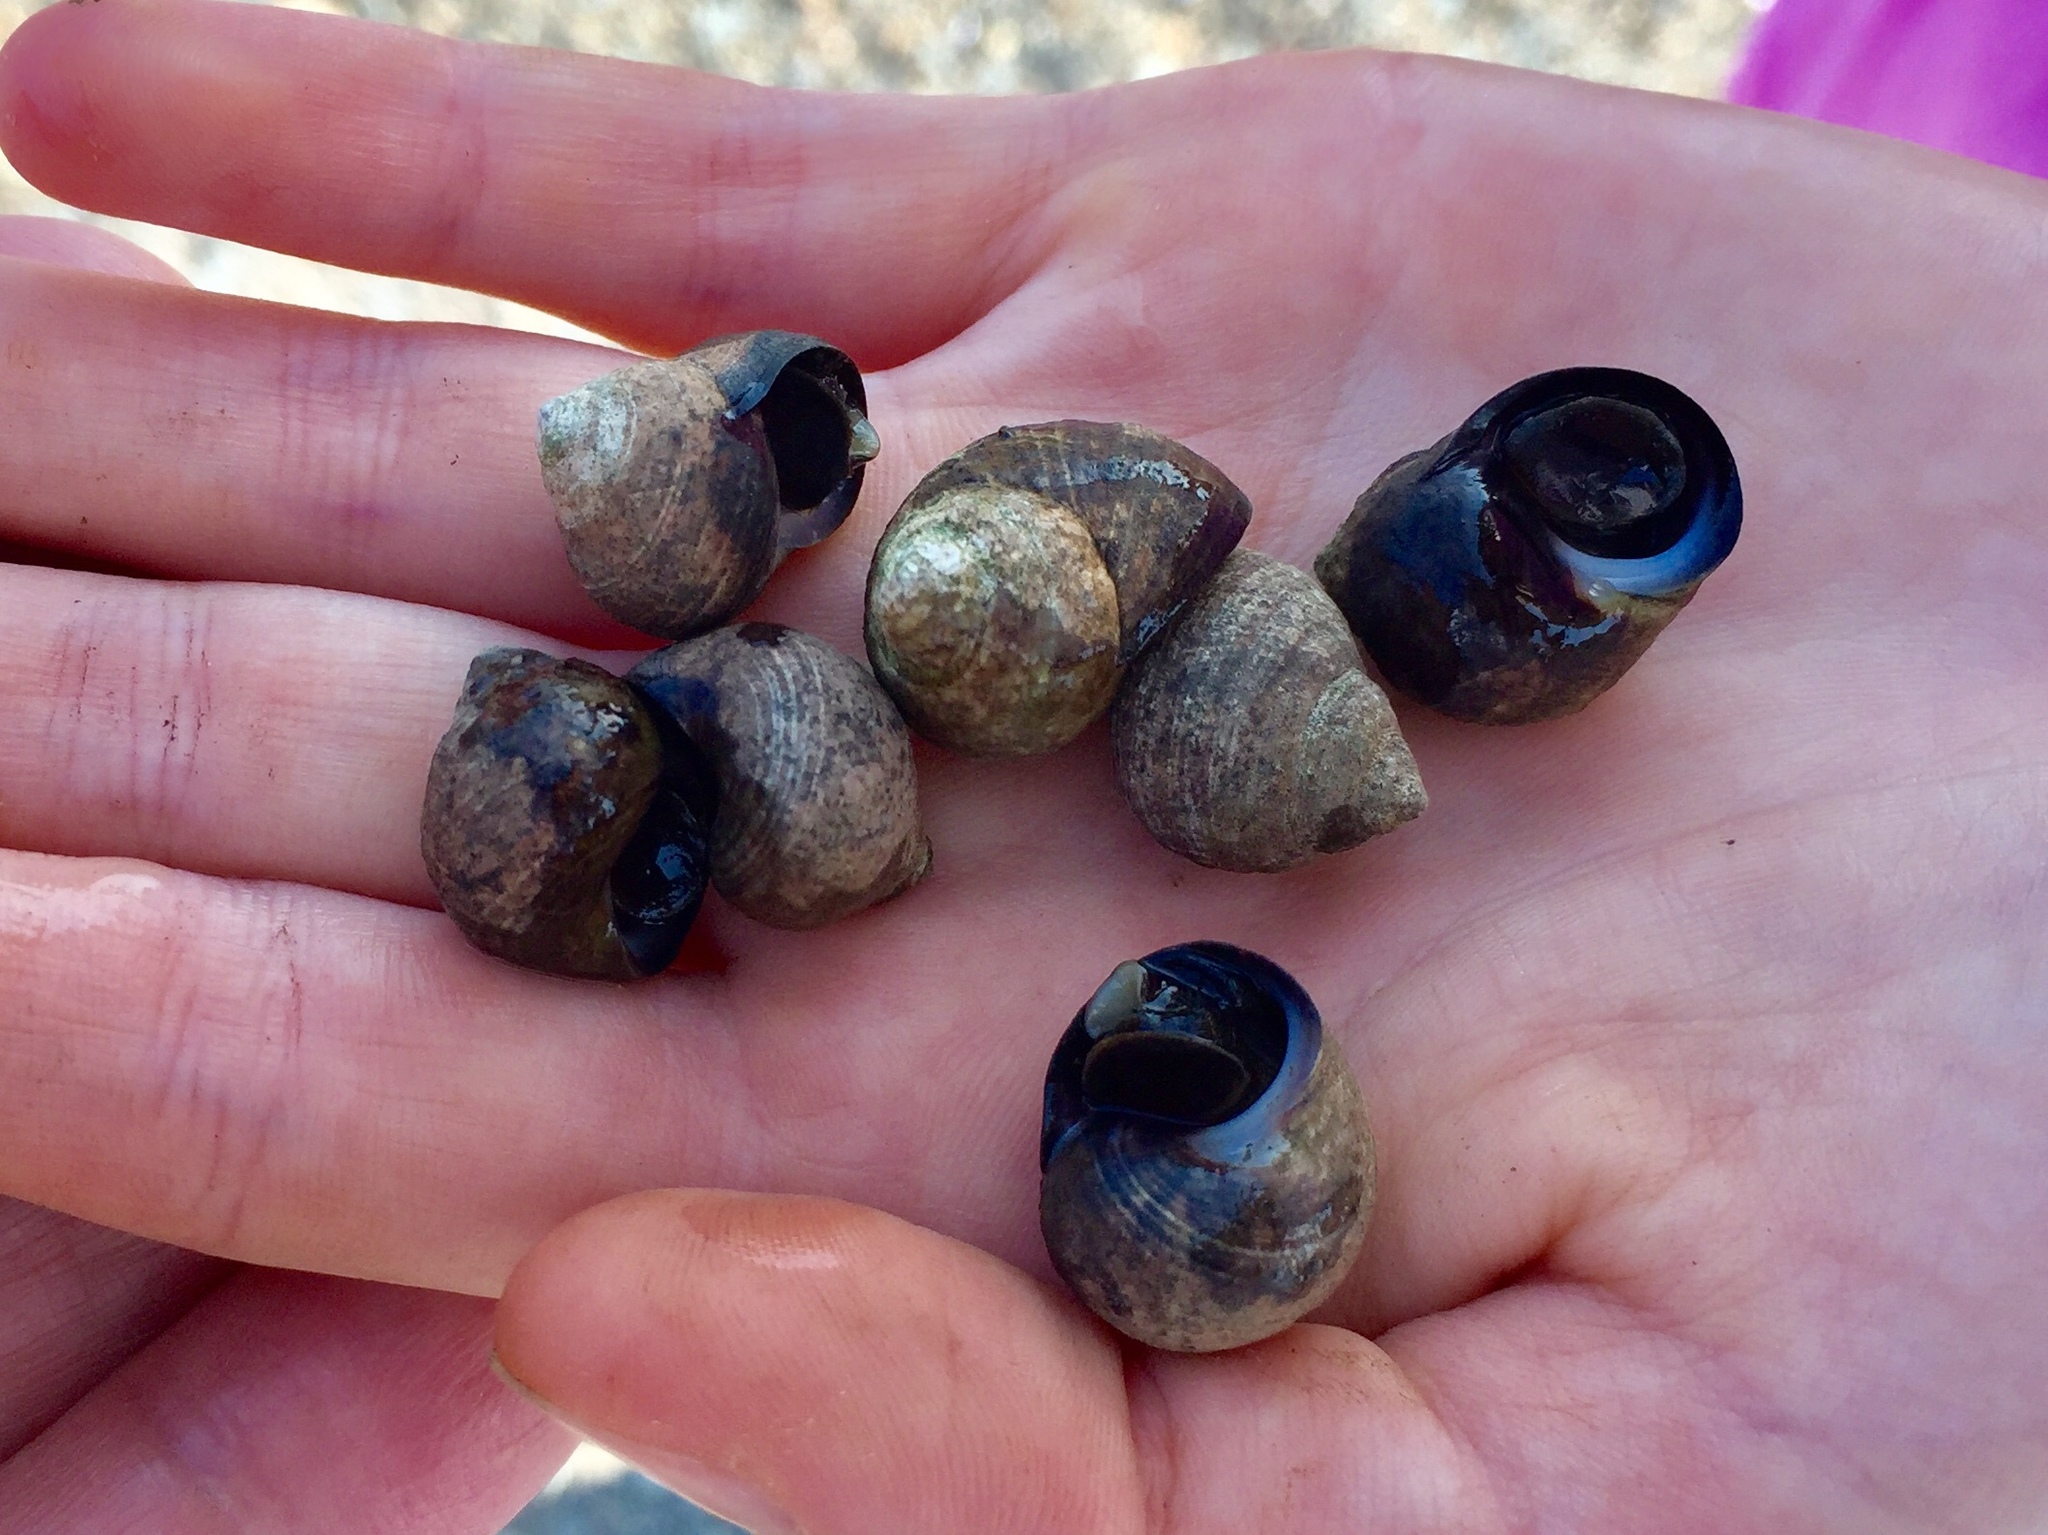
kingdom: Animalia
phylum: Mollusca
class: Gastropoda
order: Littorinimorpha
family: Littorinidae
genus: Littorina
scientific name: Littorina littorea
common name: Common periwinkle
